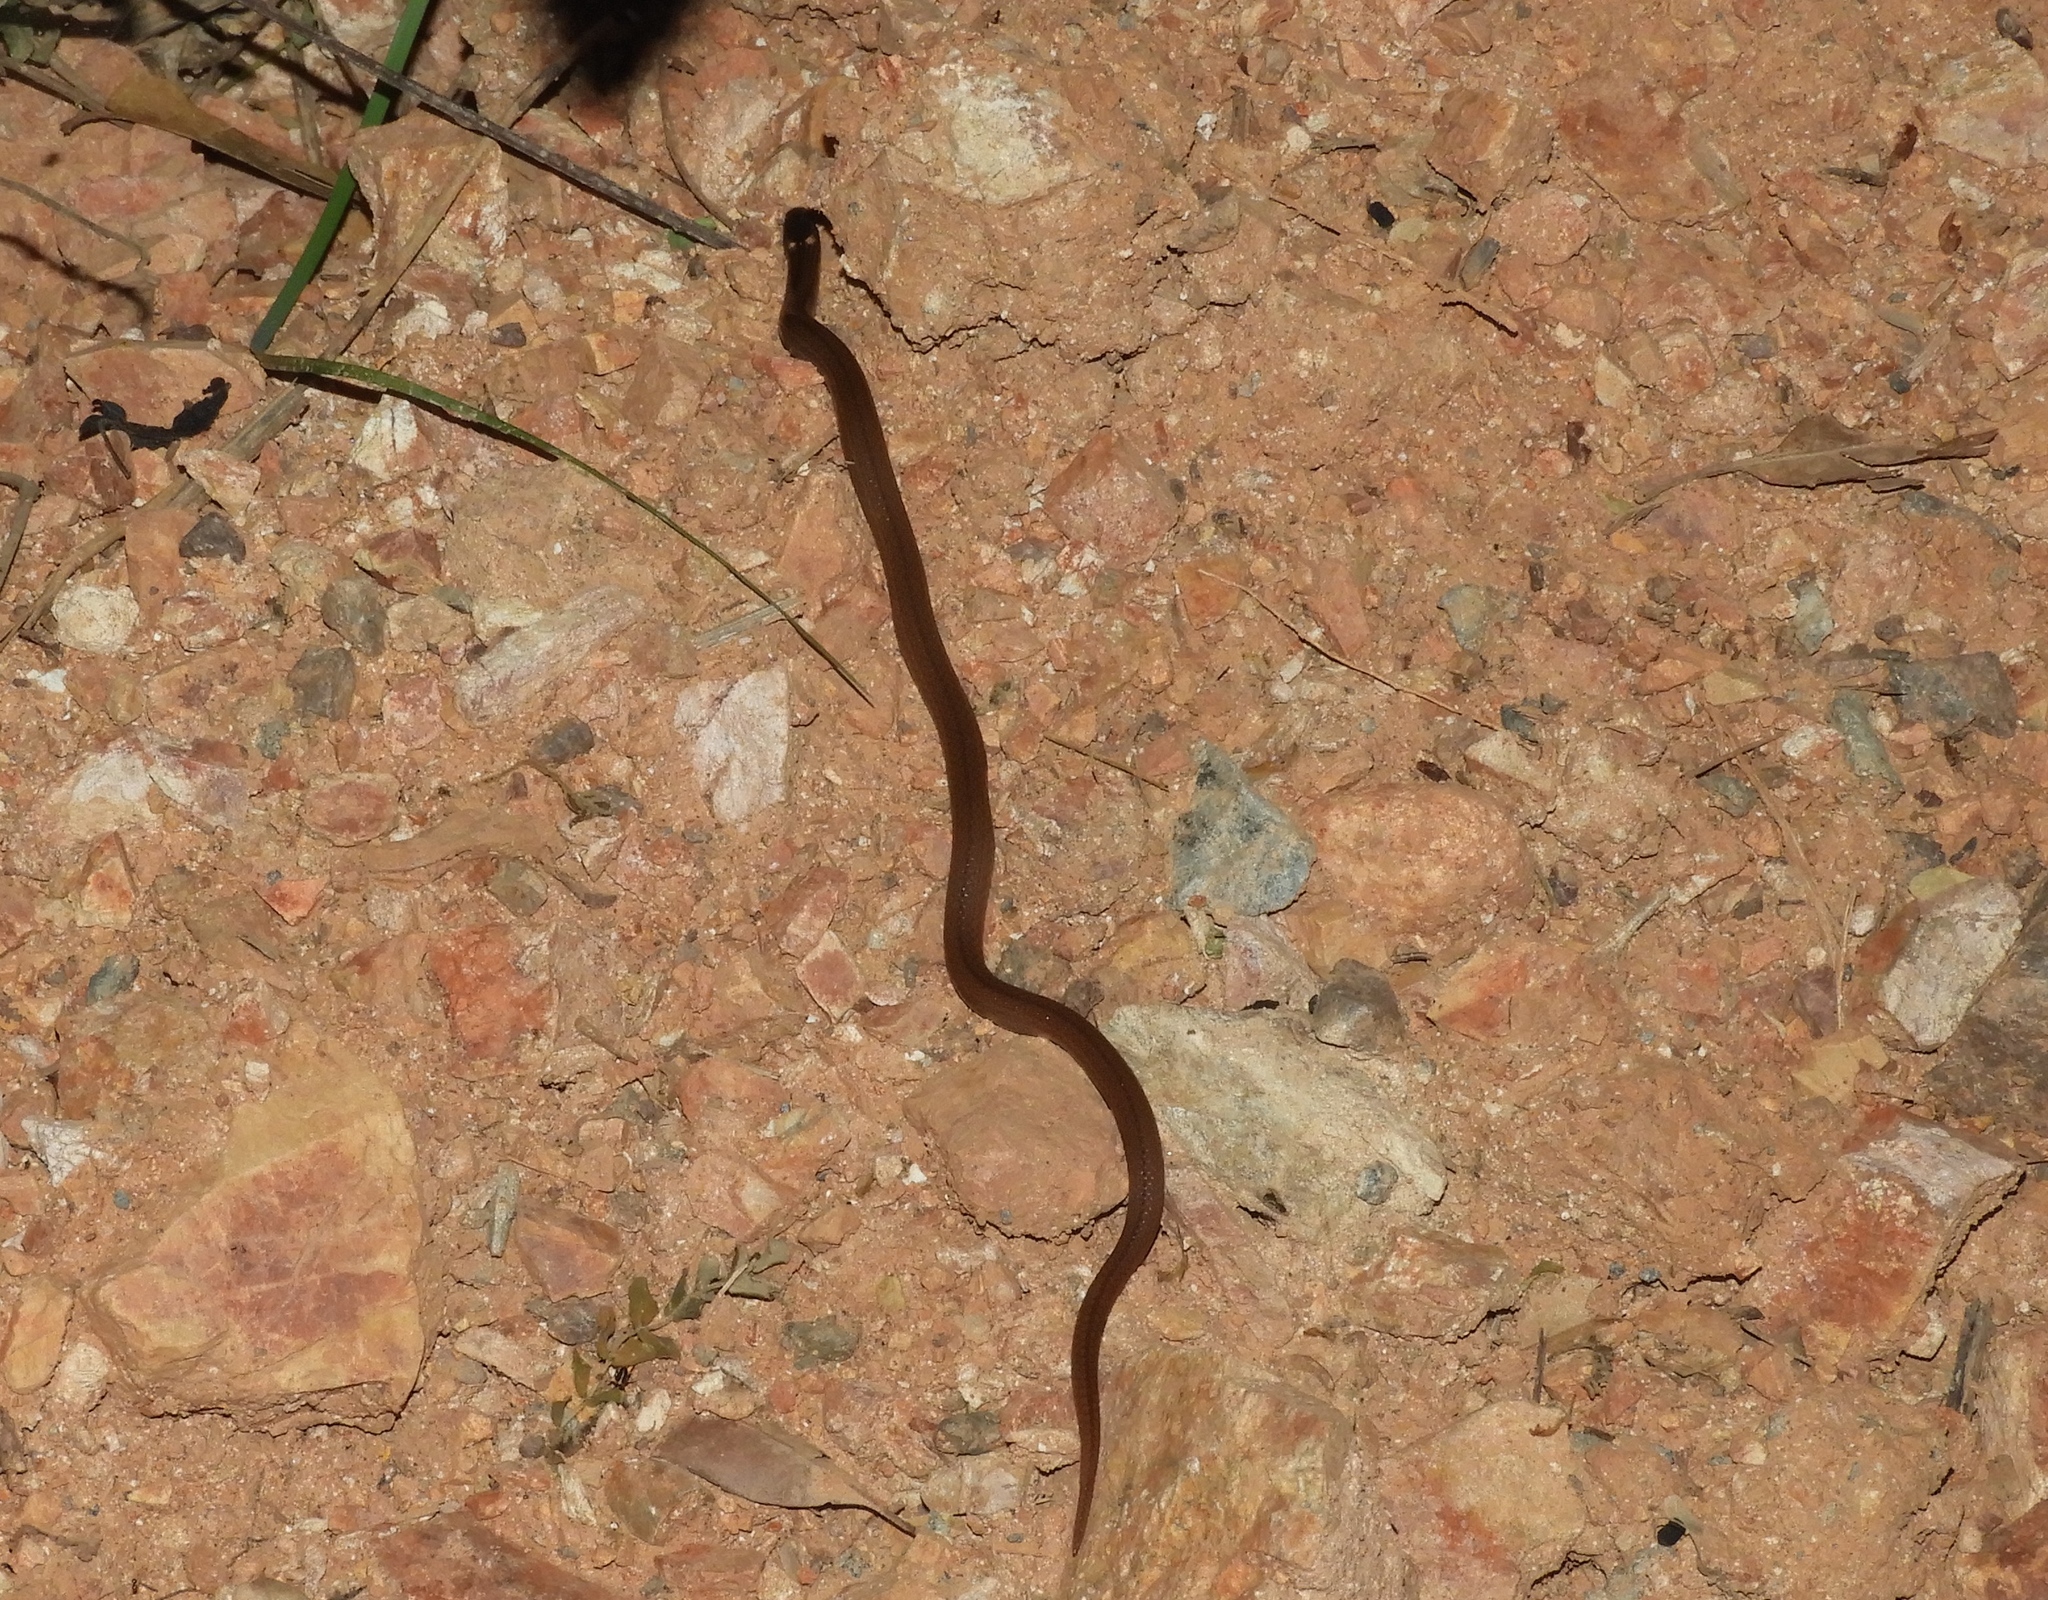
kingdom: Animalia
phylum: Chordata
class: Squamata
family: Colubridae
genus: Tantilla
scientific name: Tantilla calamarina
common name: Pacific coast centipede snake
